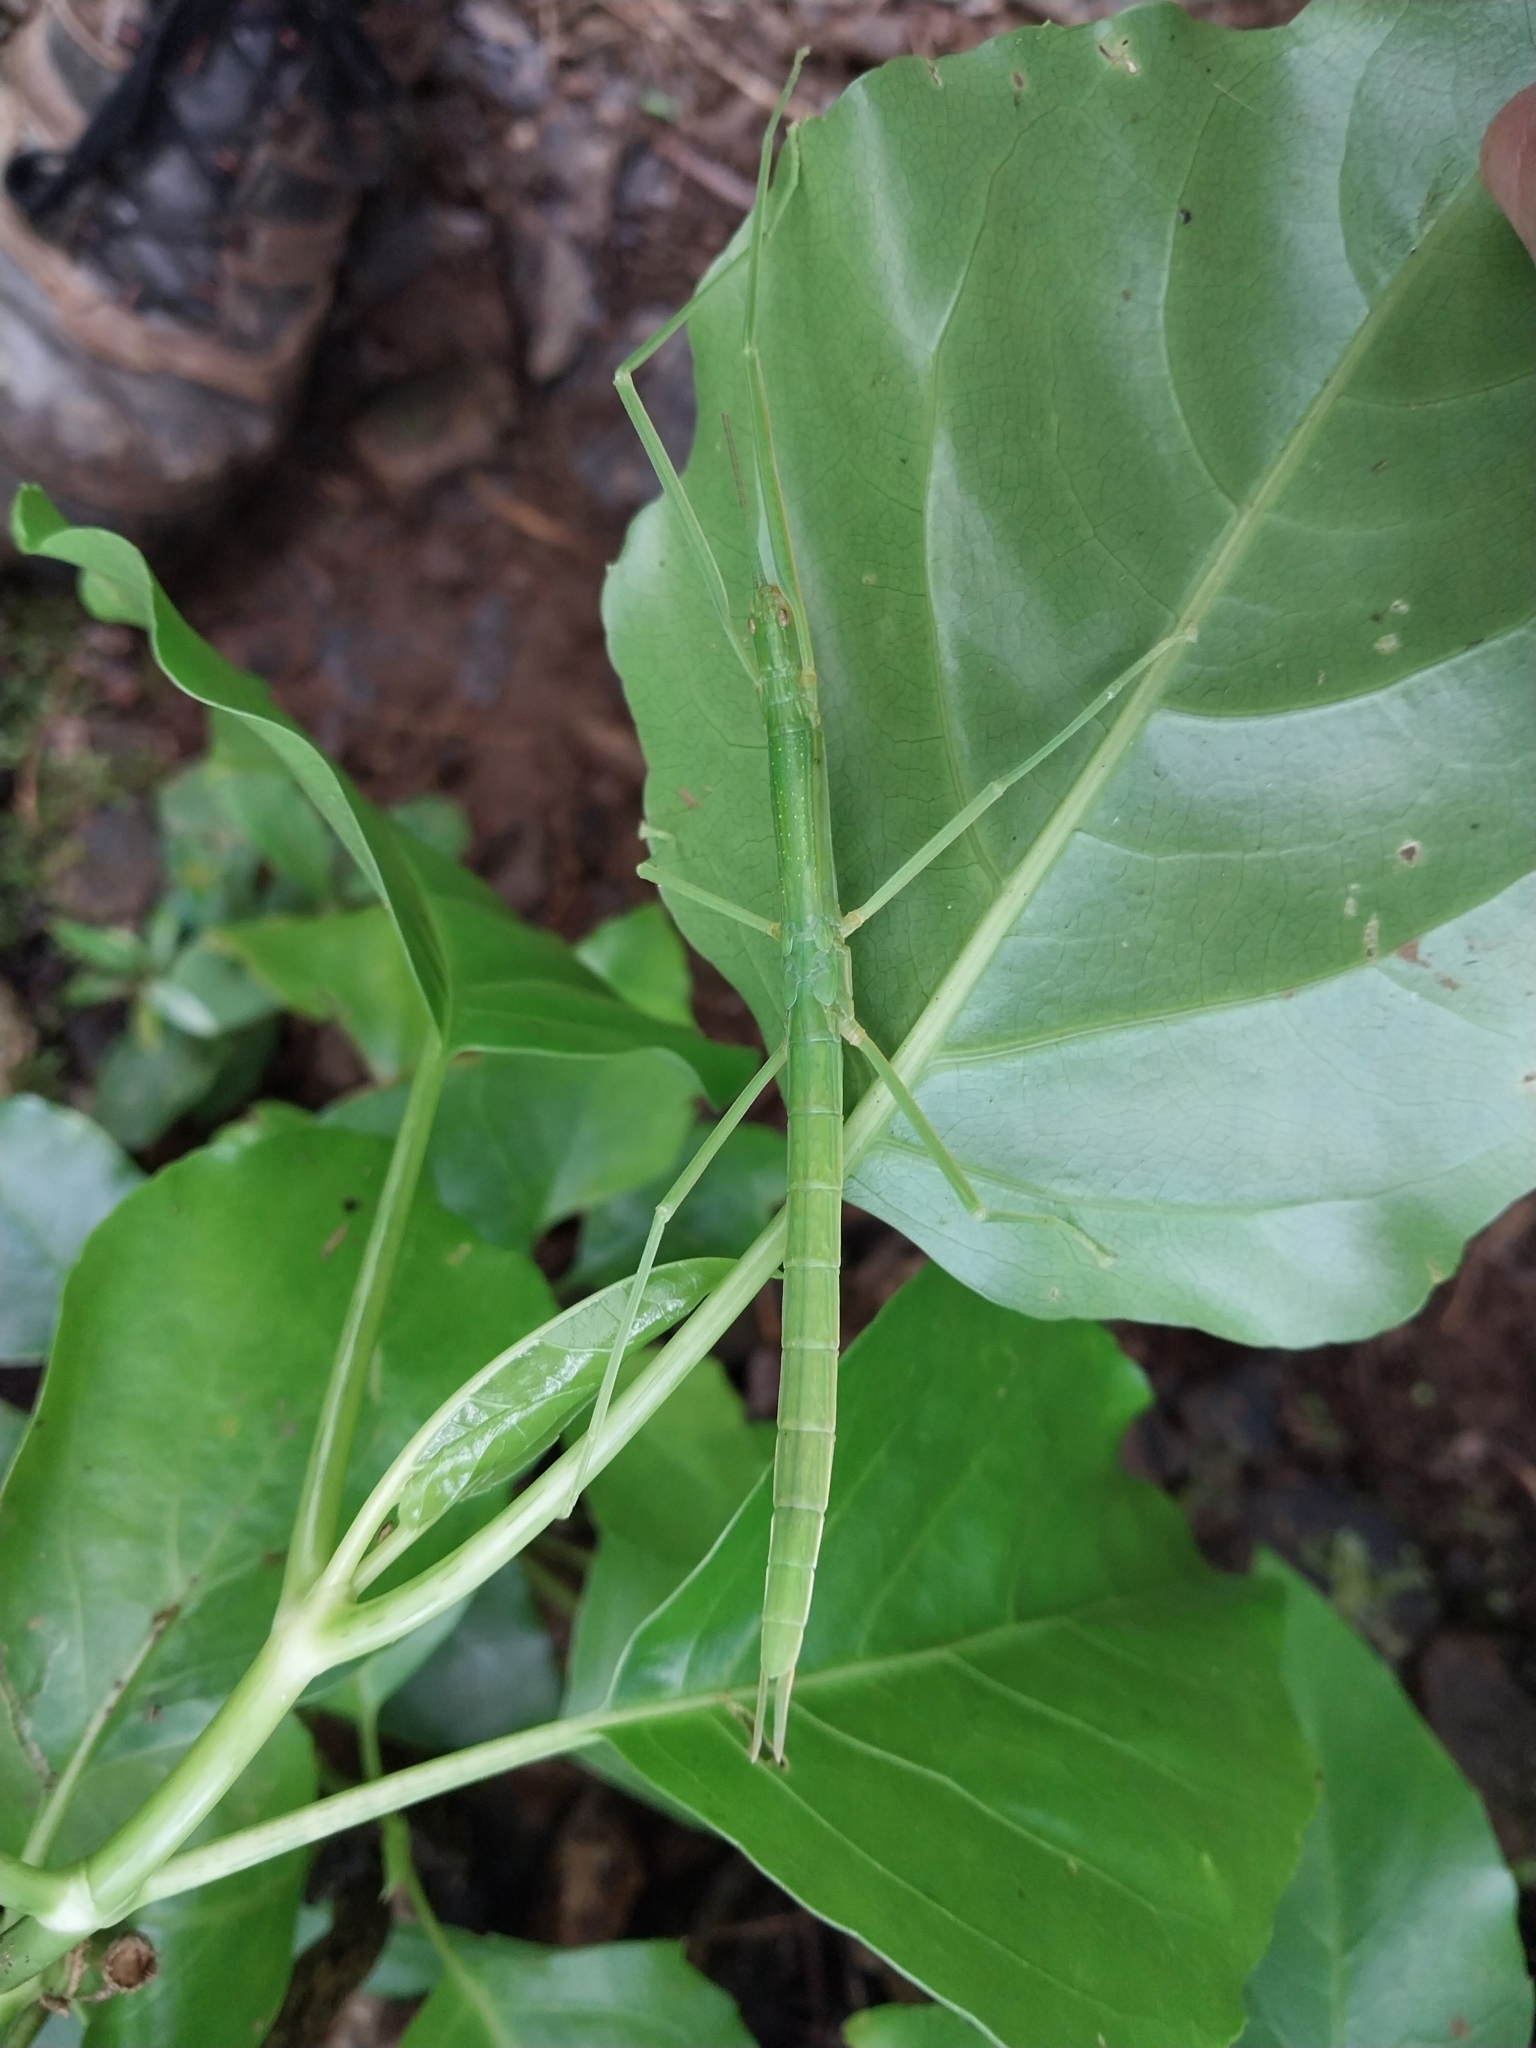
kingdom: Animalia
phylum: Arthropoda
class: Insecta
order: Phasmida
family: Phasmatidae
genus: Graeffea
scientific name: Graeffea crouanii
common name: Coconut stick insect
